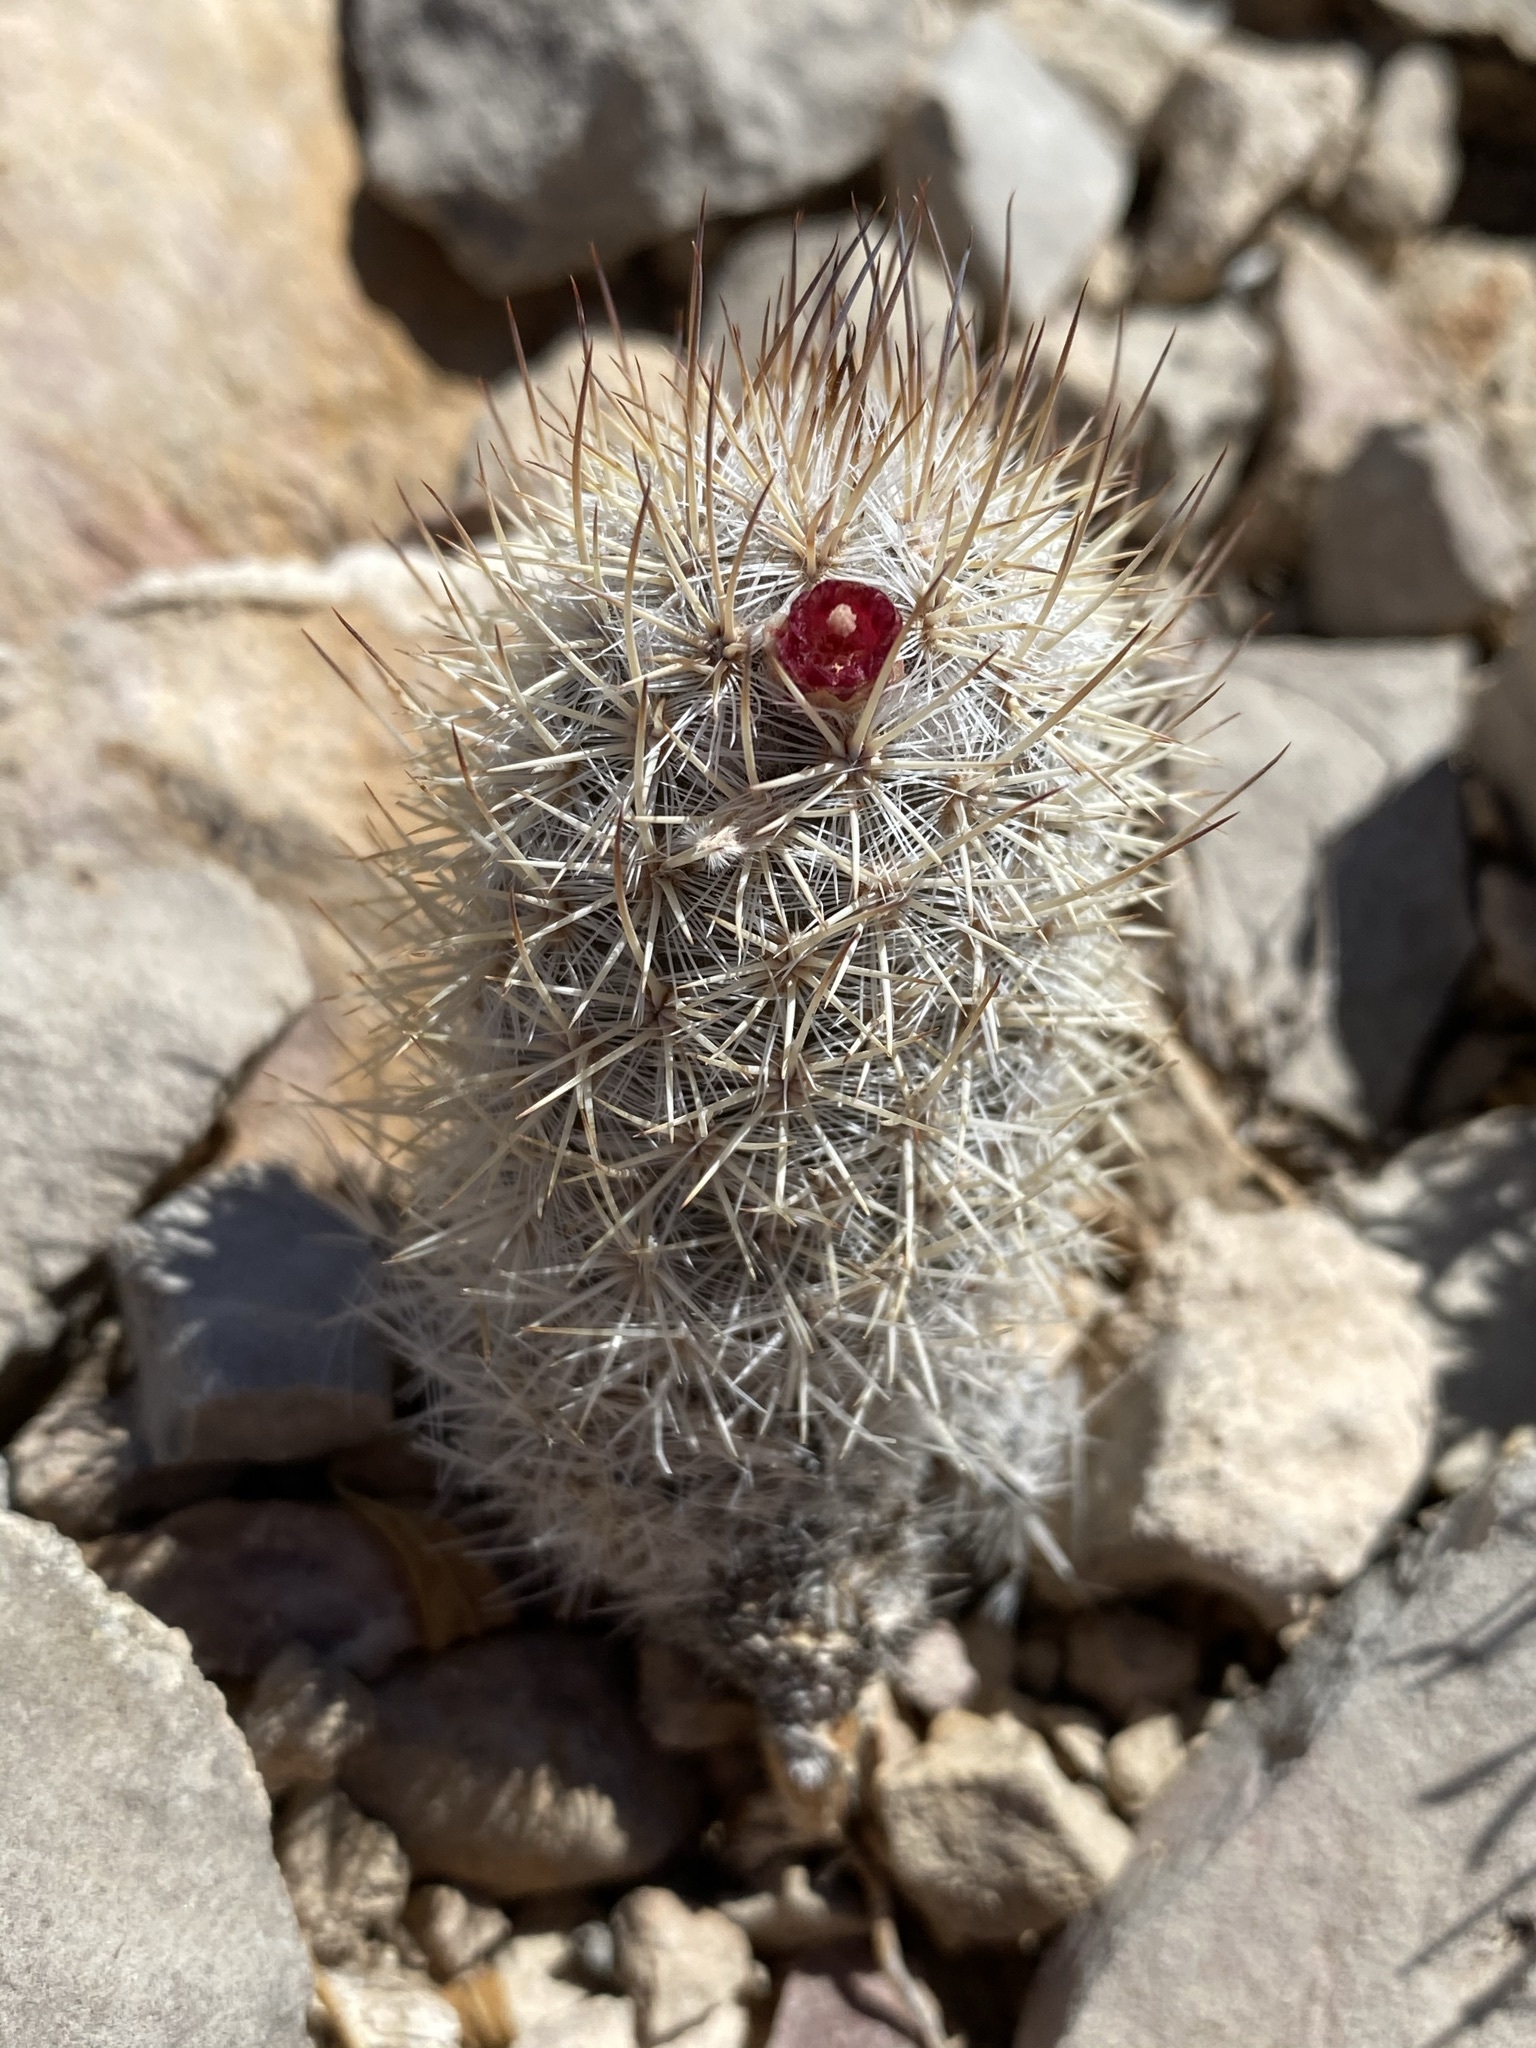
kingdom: Plantae
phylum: Tracheophyta
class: Magnoliopsida
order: Caryophyllales
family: Cactaceae
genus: Mammillaria
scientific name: Mammillaria pottsii
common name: Pott's nipple-cactus
